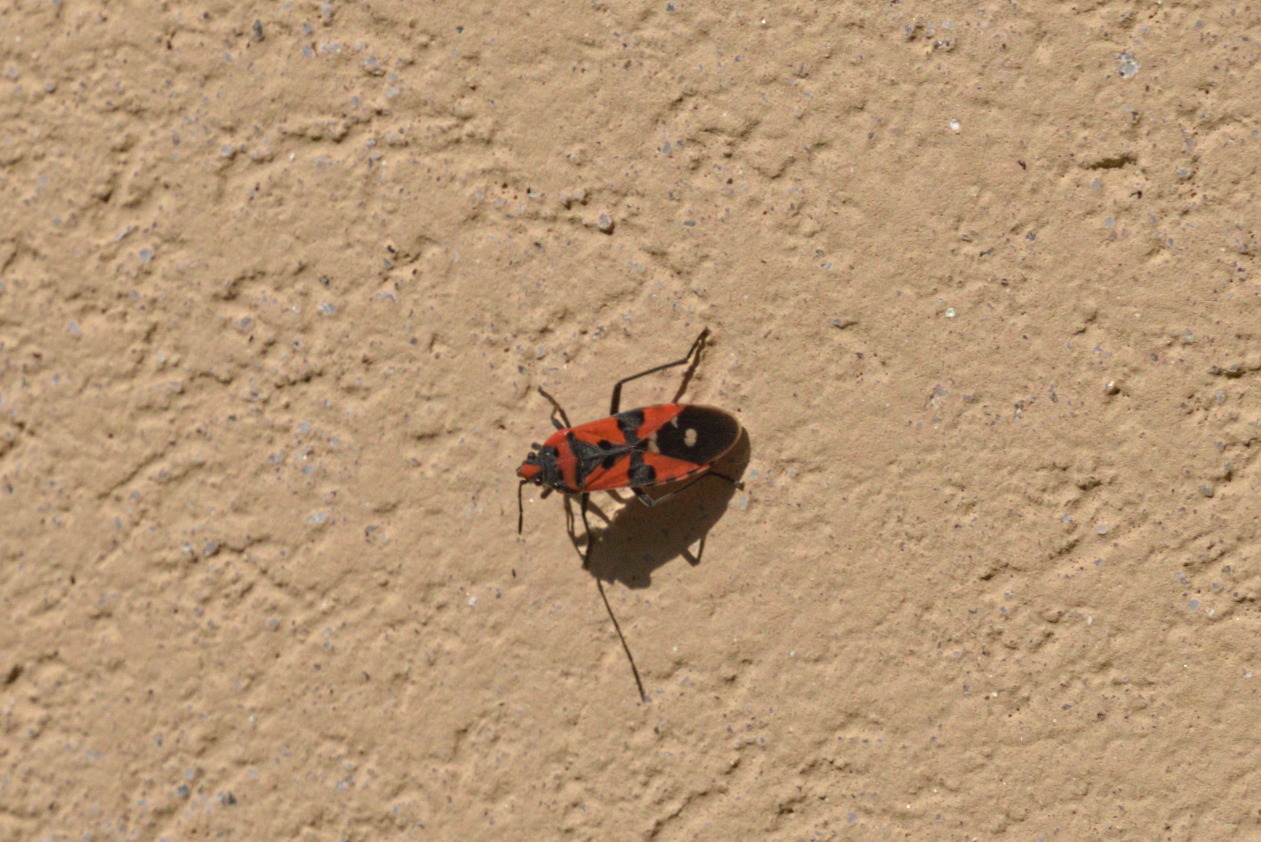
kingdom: Animalia
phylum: Arthropoda
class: Insecta
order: Hemiptera
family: Lygaeidae
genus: Lygaeus
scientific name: Lygaeus equestris
